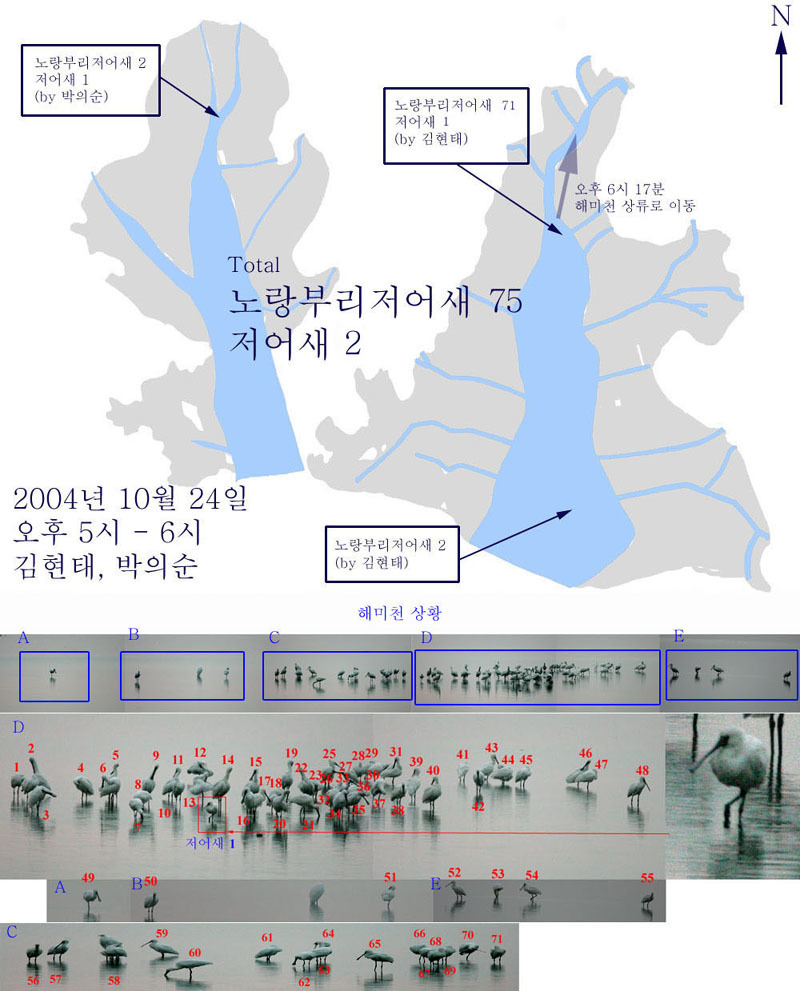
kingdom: Animalia
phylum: Chordata
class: Aves
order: Pelecaniformes
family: Threskiornithidae
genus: Platalea
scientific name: Platalea leucorodia
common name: Eurasian spoonbill
